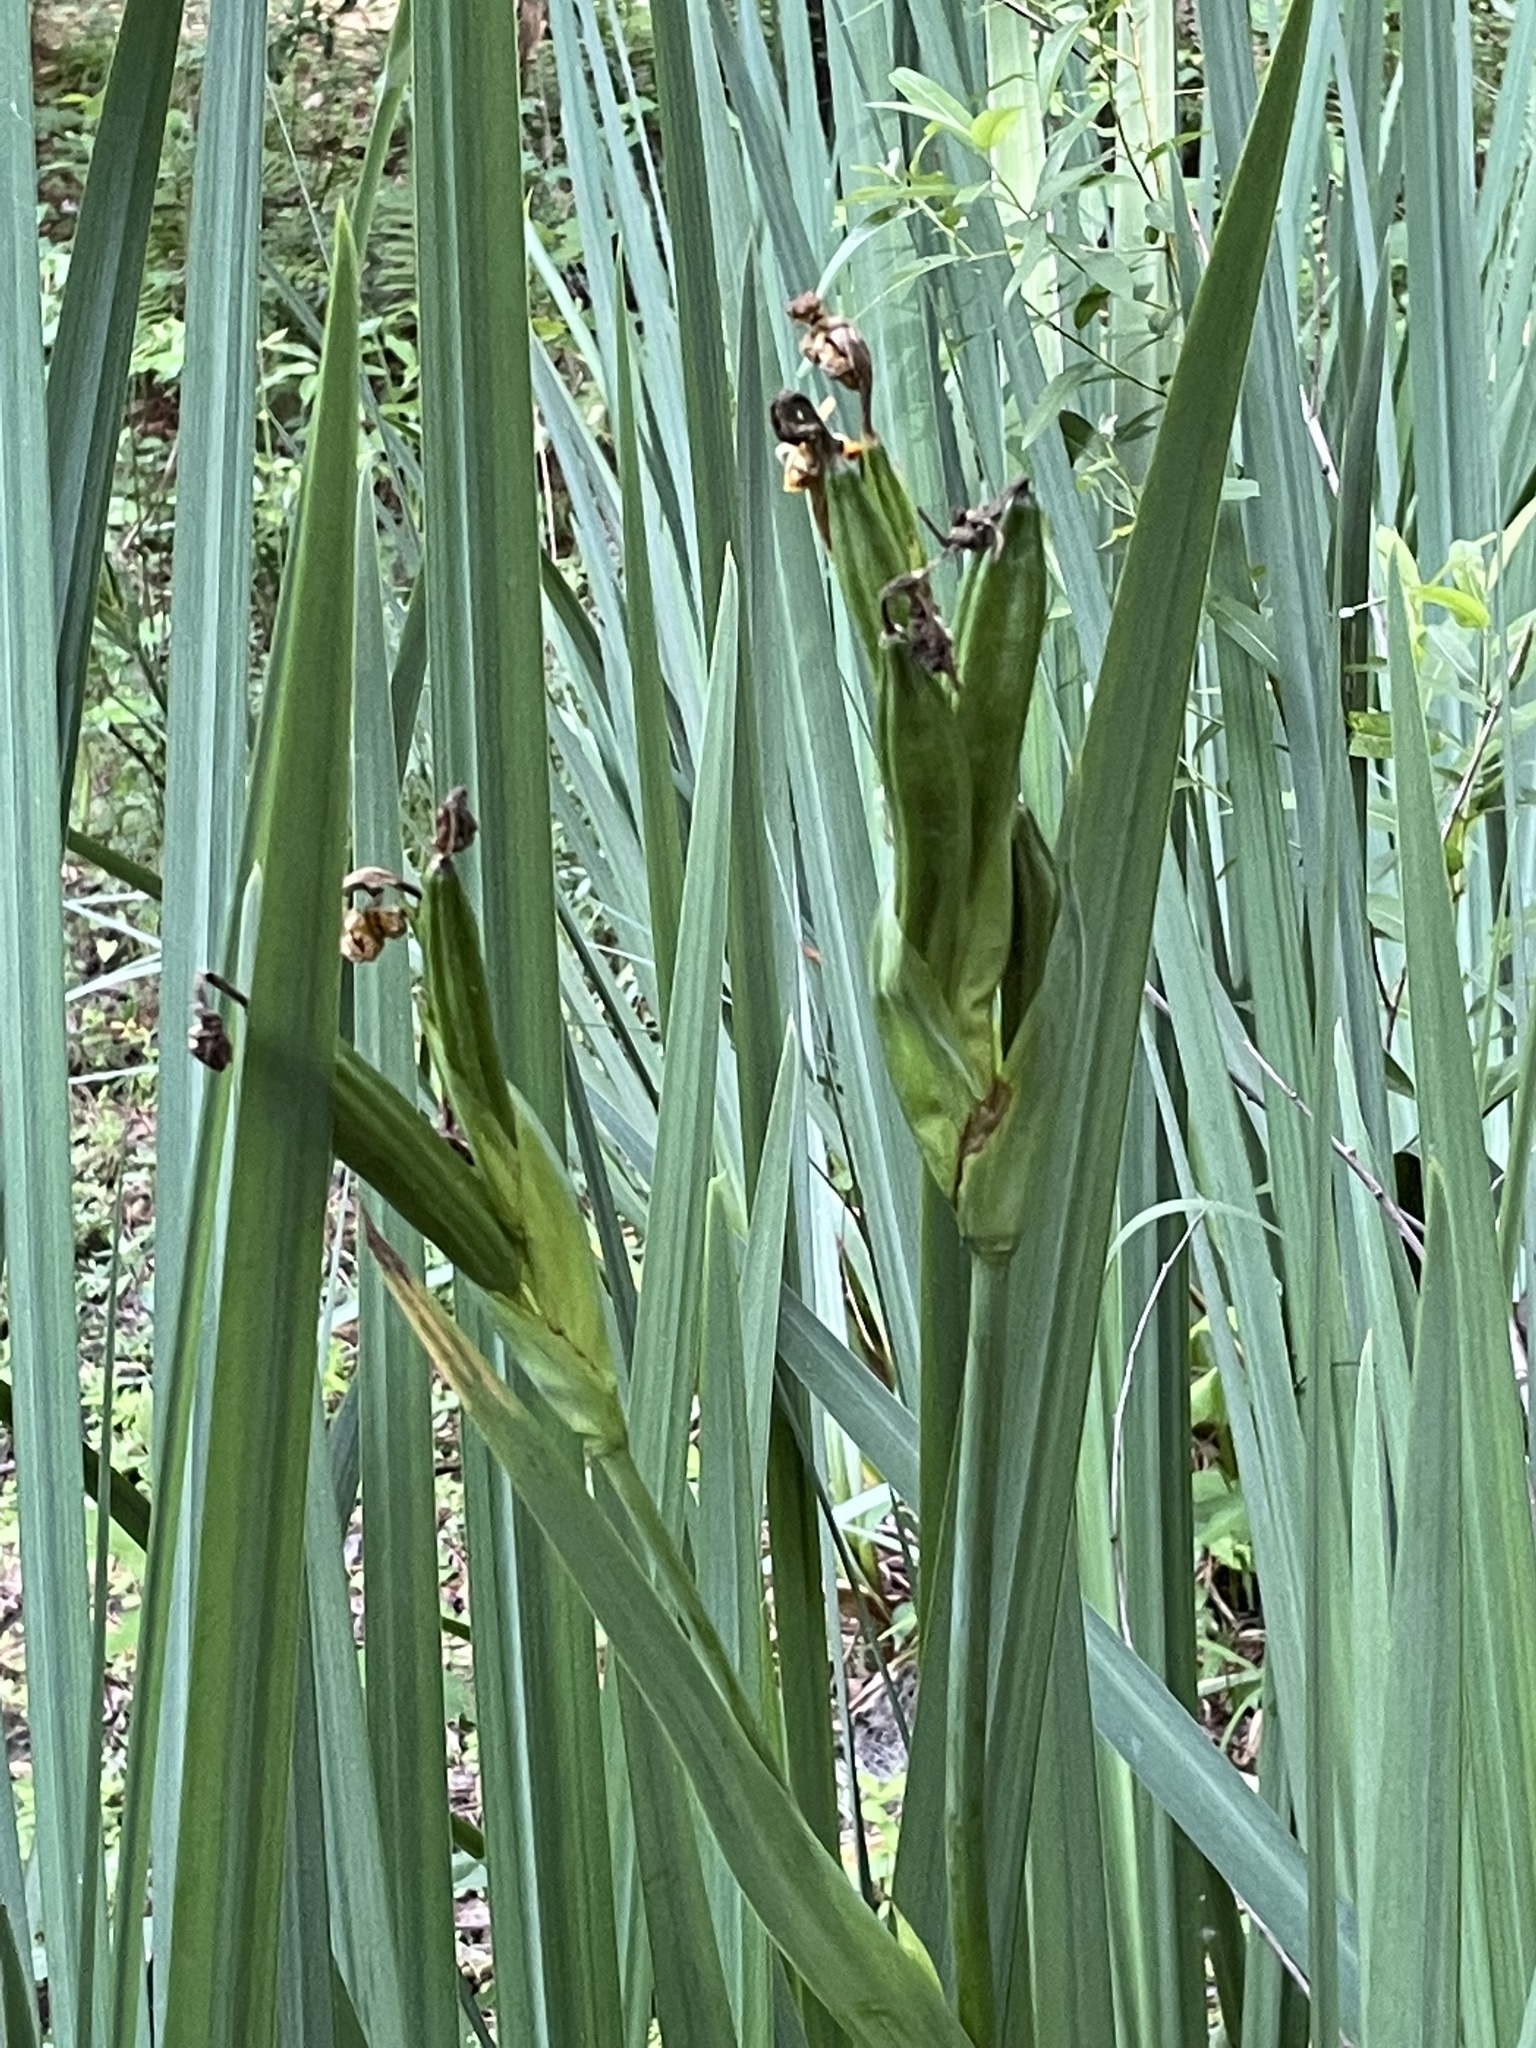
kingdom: Plantae
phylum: Tracheophyta
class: Liliopsida
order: Asparagales
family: Iridaceae
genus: Iris
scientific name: Iris pseudacorus
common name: Yellow flag
